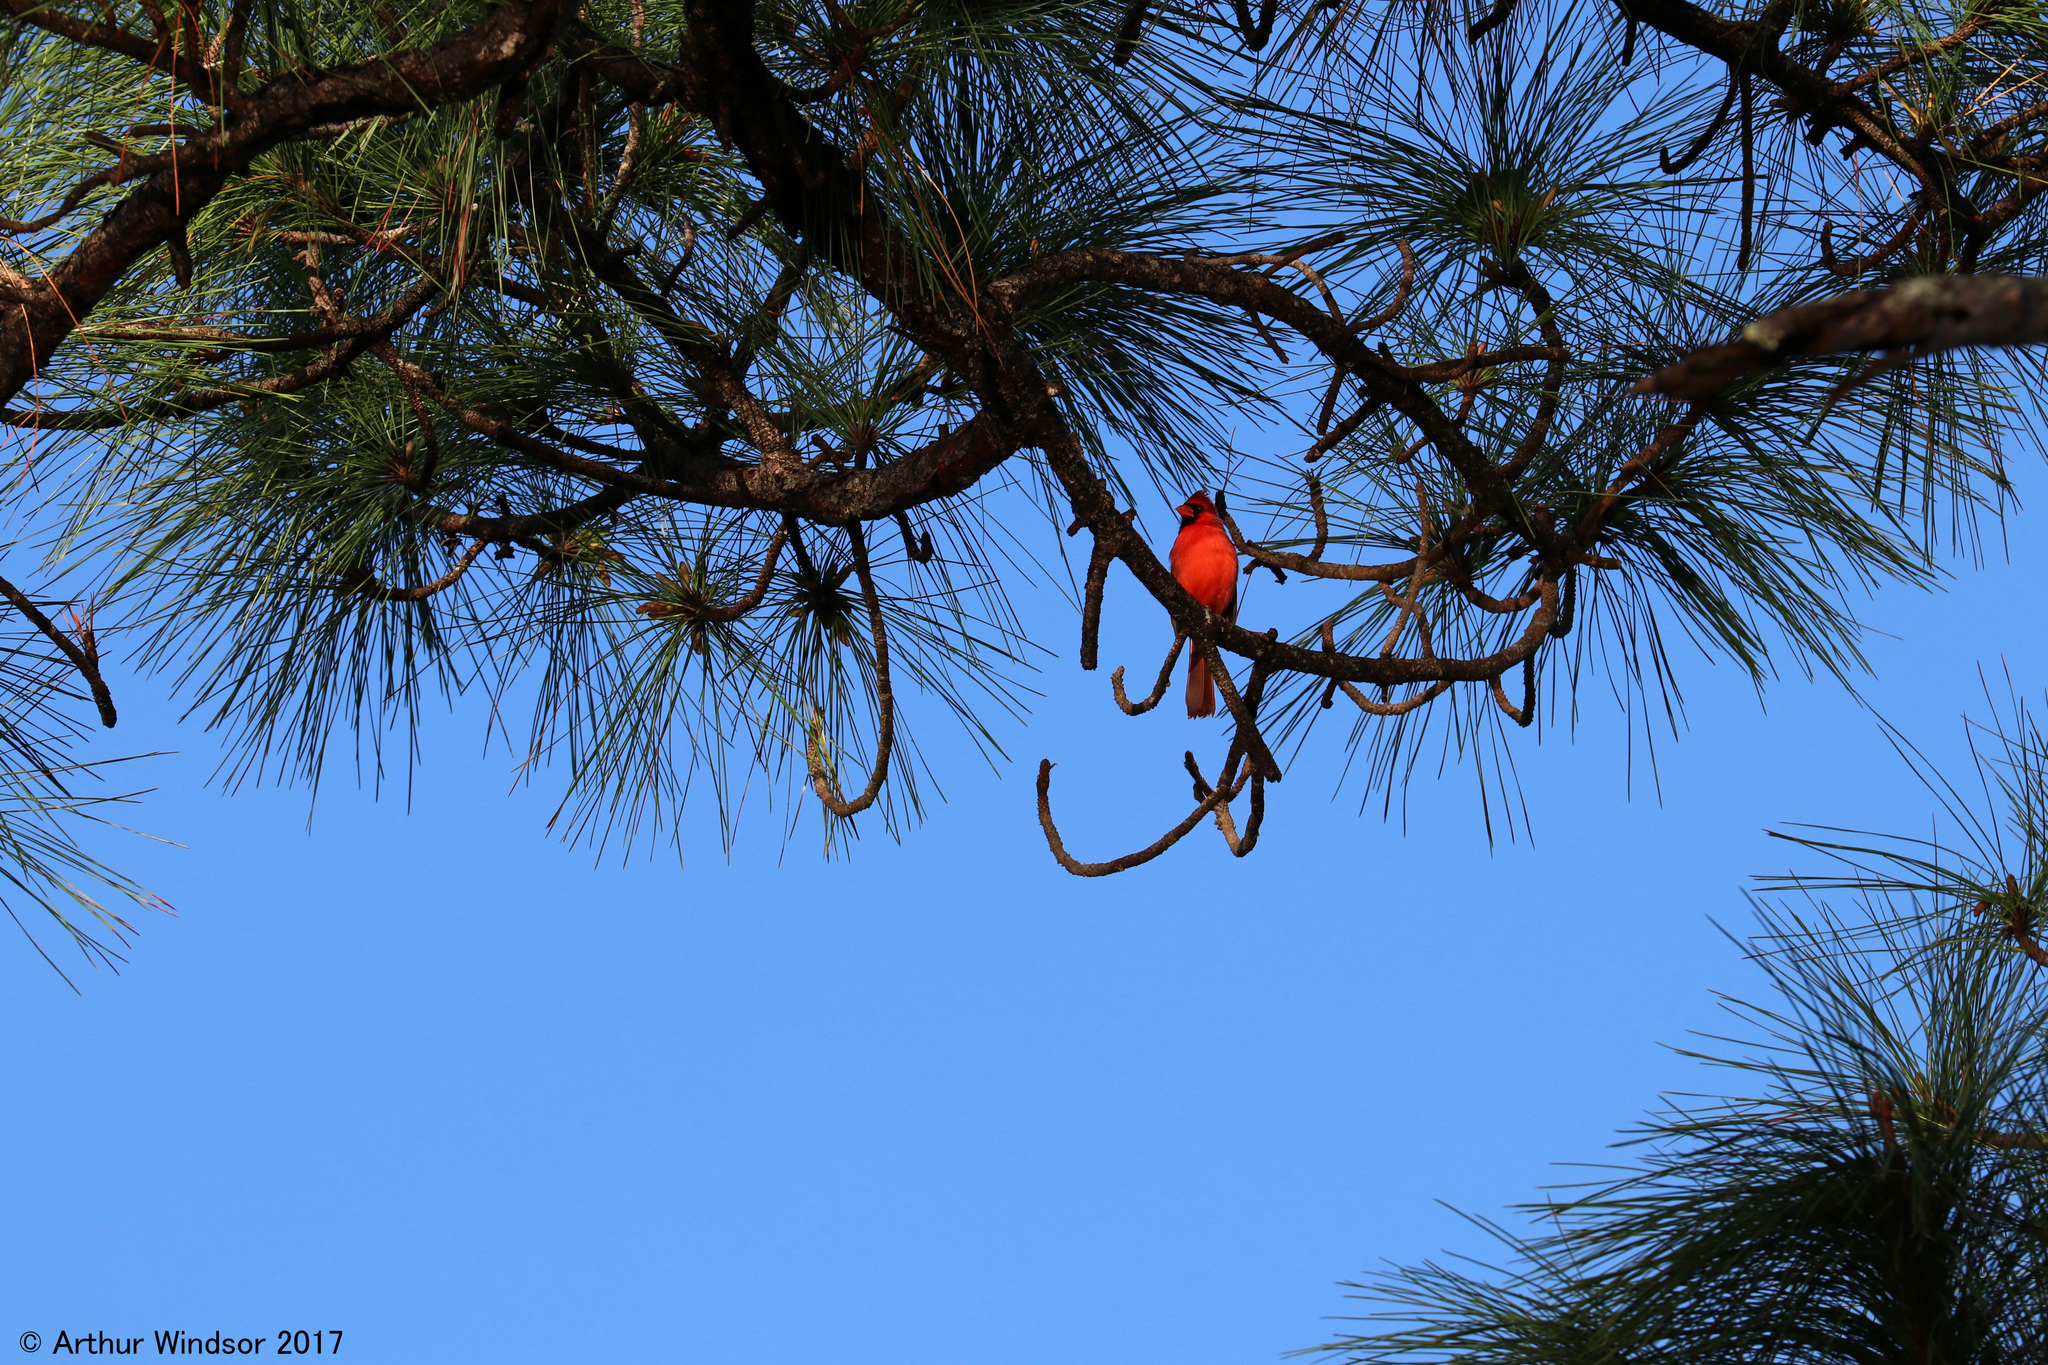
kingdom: Animalia
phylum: Chordata
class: Aves
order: Passeriformes
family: Cardinalidae
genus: Cardinalis
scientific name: Cardinalis cardinalis
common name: Northern cardinal
